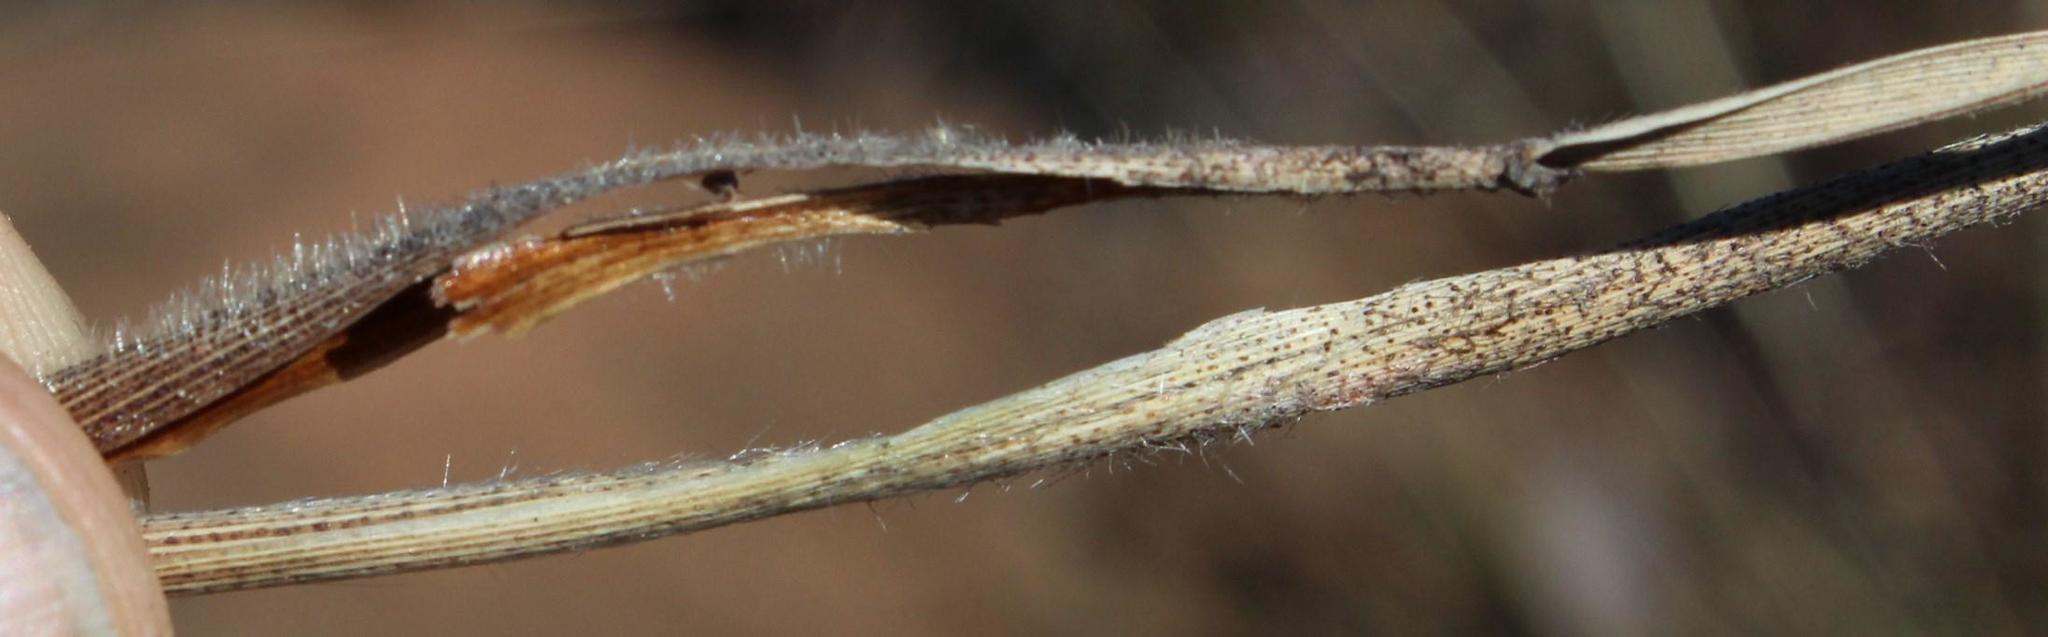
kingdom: Plantae
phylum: Tracheophyta
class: Liliopsida
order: Poales
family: Poaceae
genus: Tristachya
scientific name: Tristachya leucothrix
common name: Trident grass
